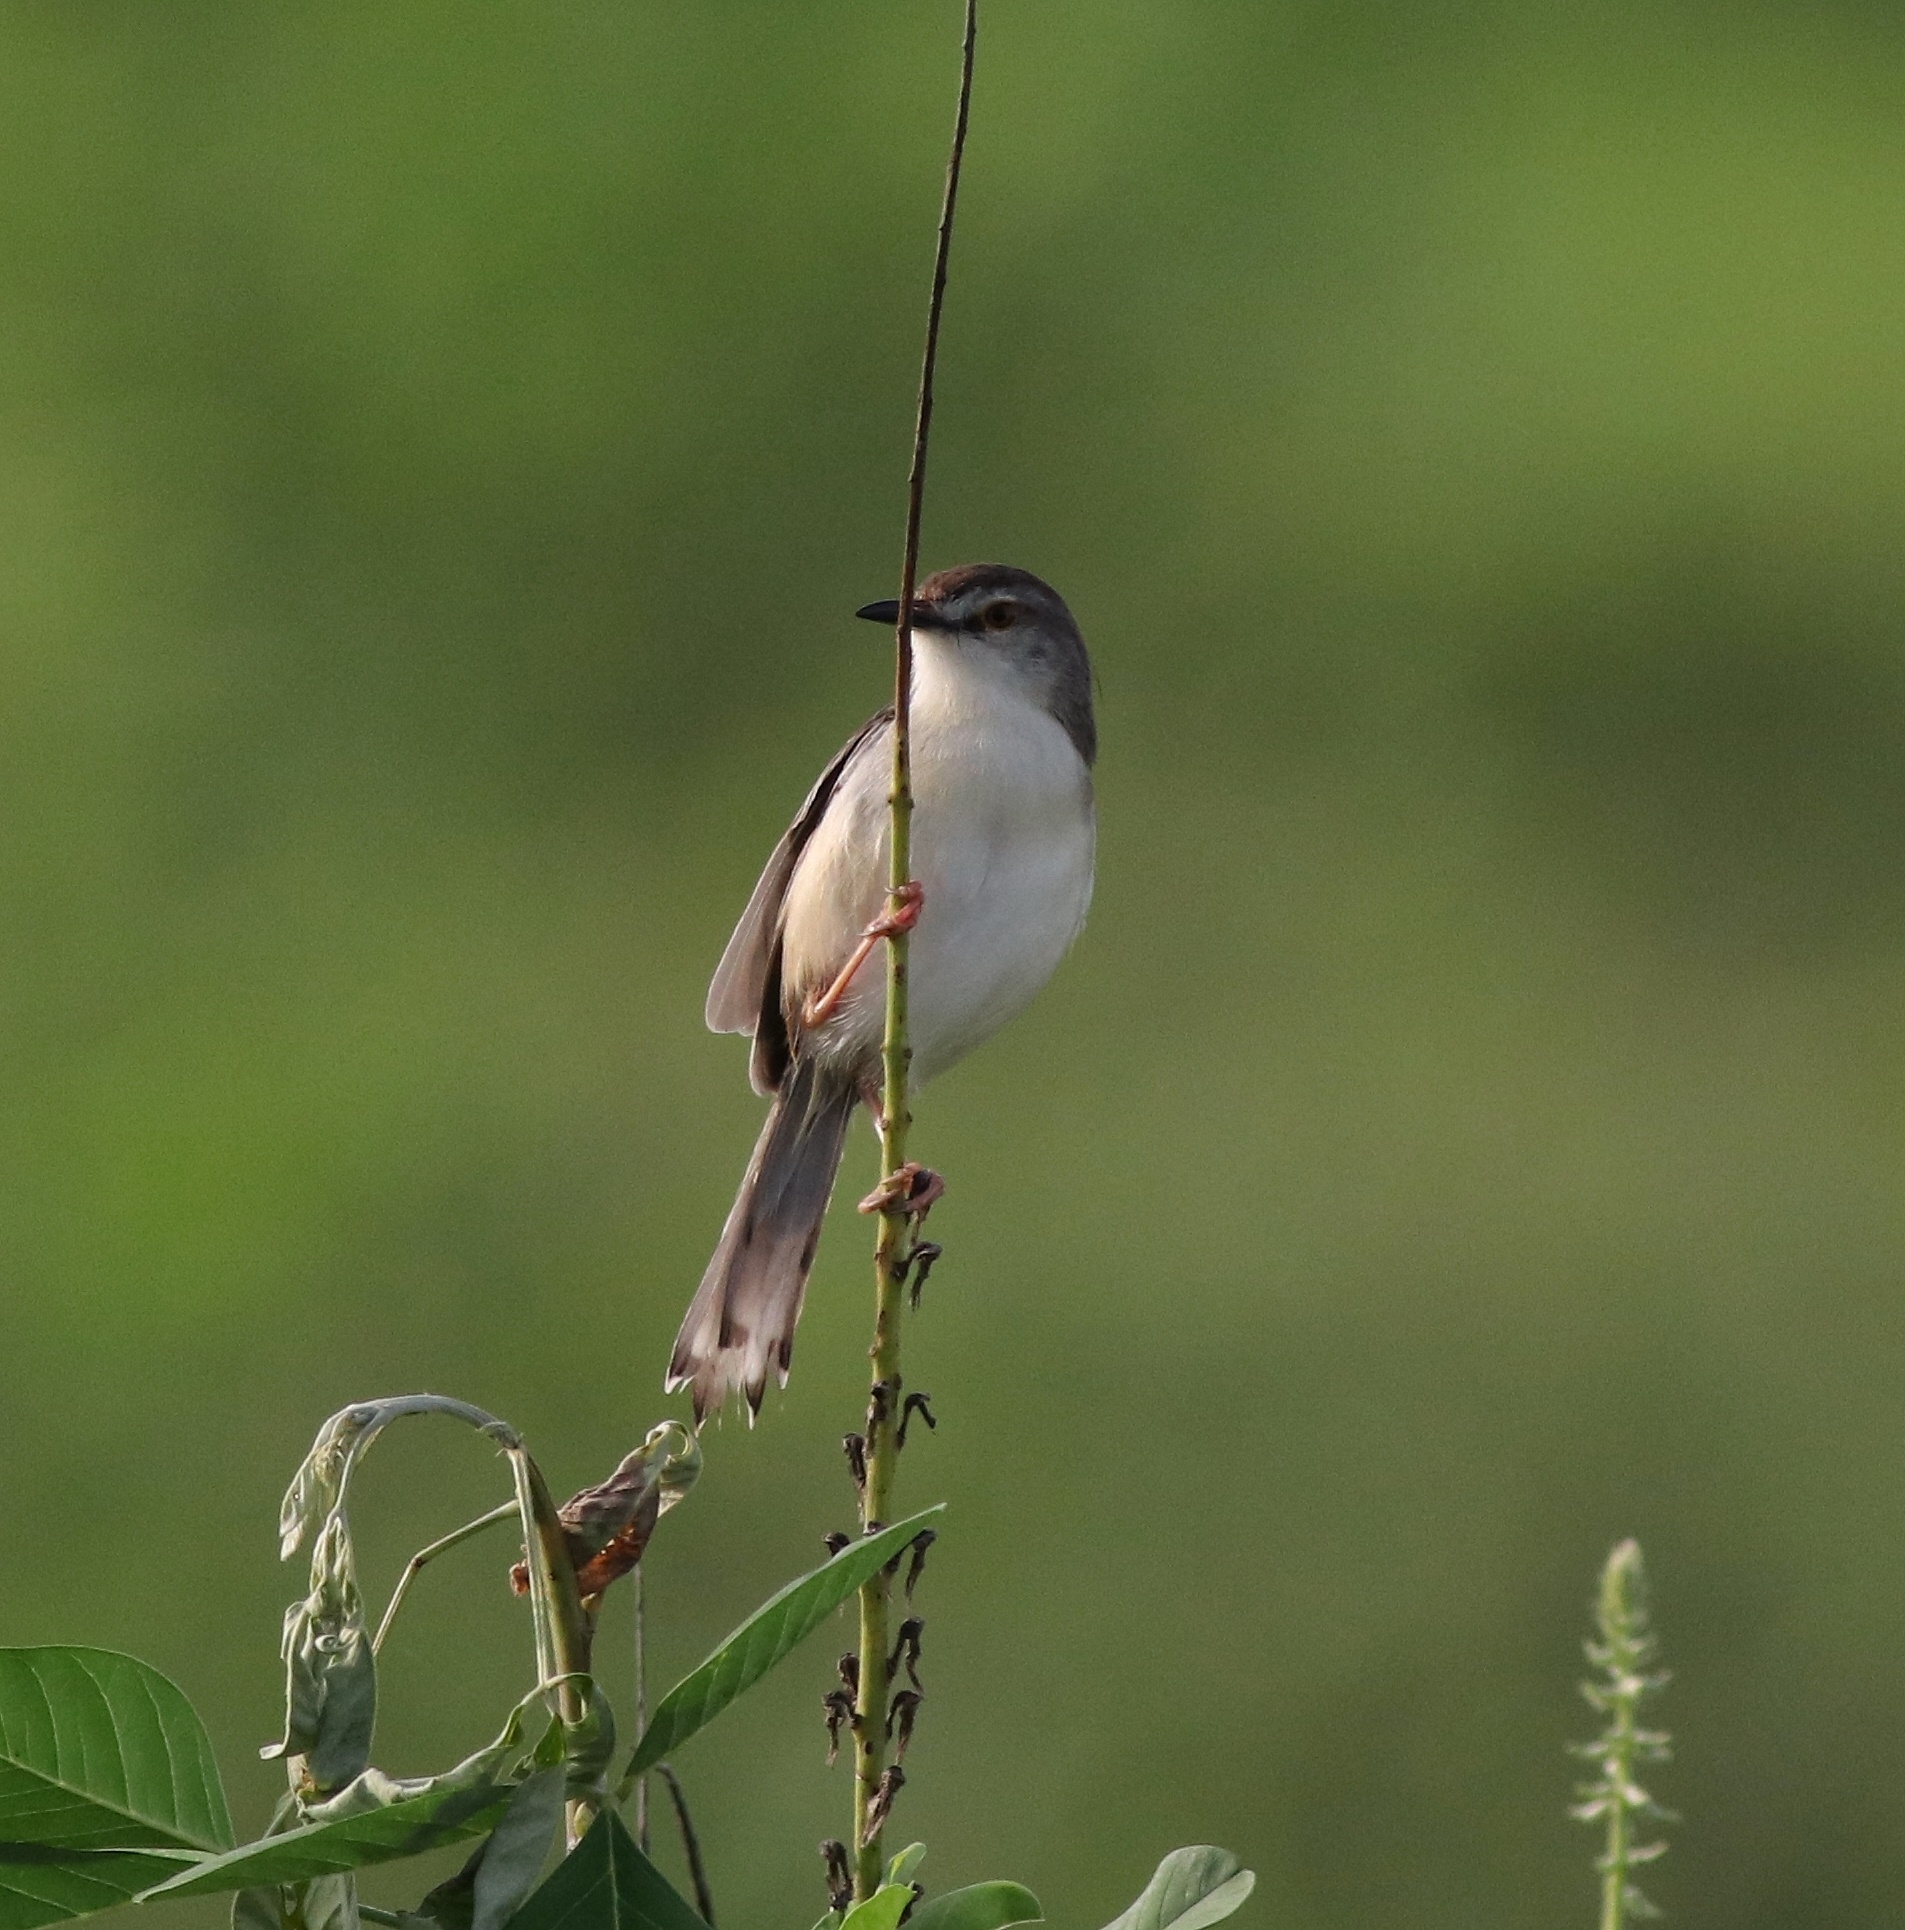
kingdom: Animalia
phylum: Chordata
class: Aves
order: Passeriformes
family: Cisticolidae
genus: Prinia
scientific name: Prinia inornata
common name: Plain prinia
